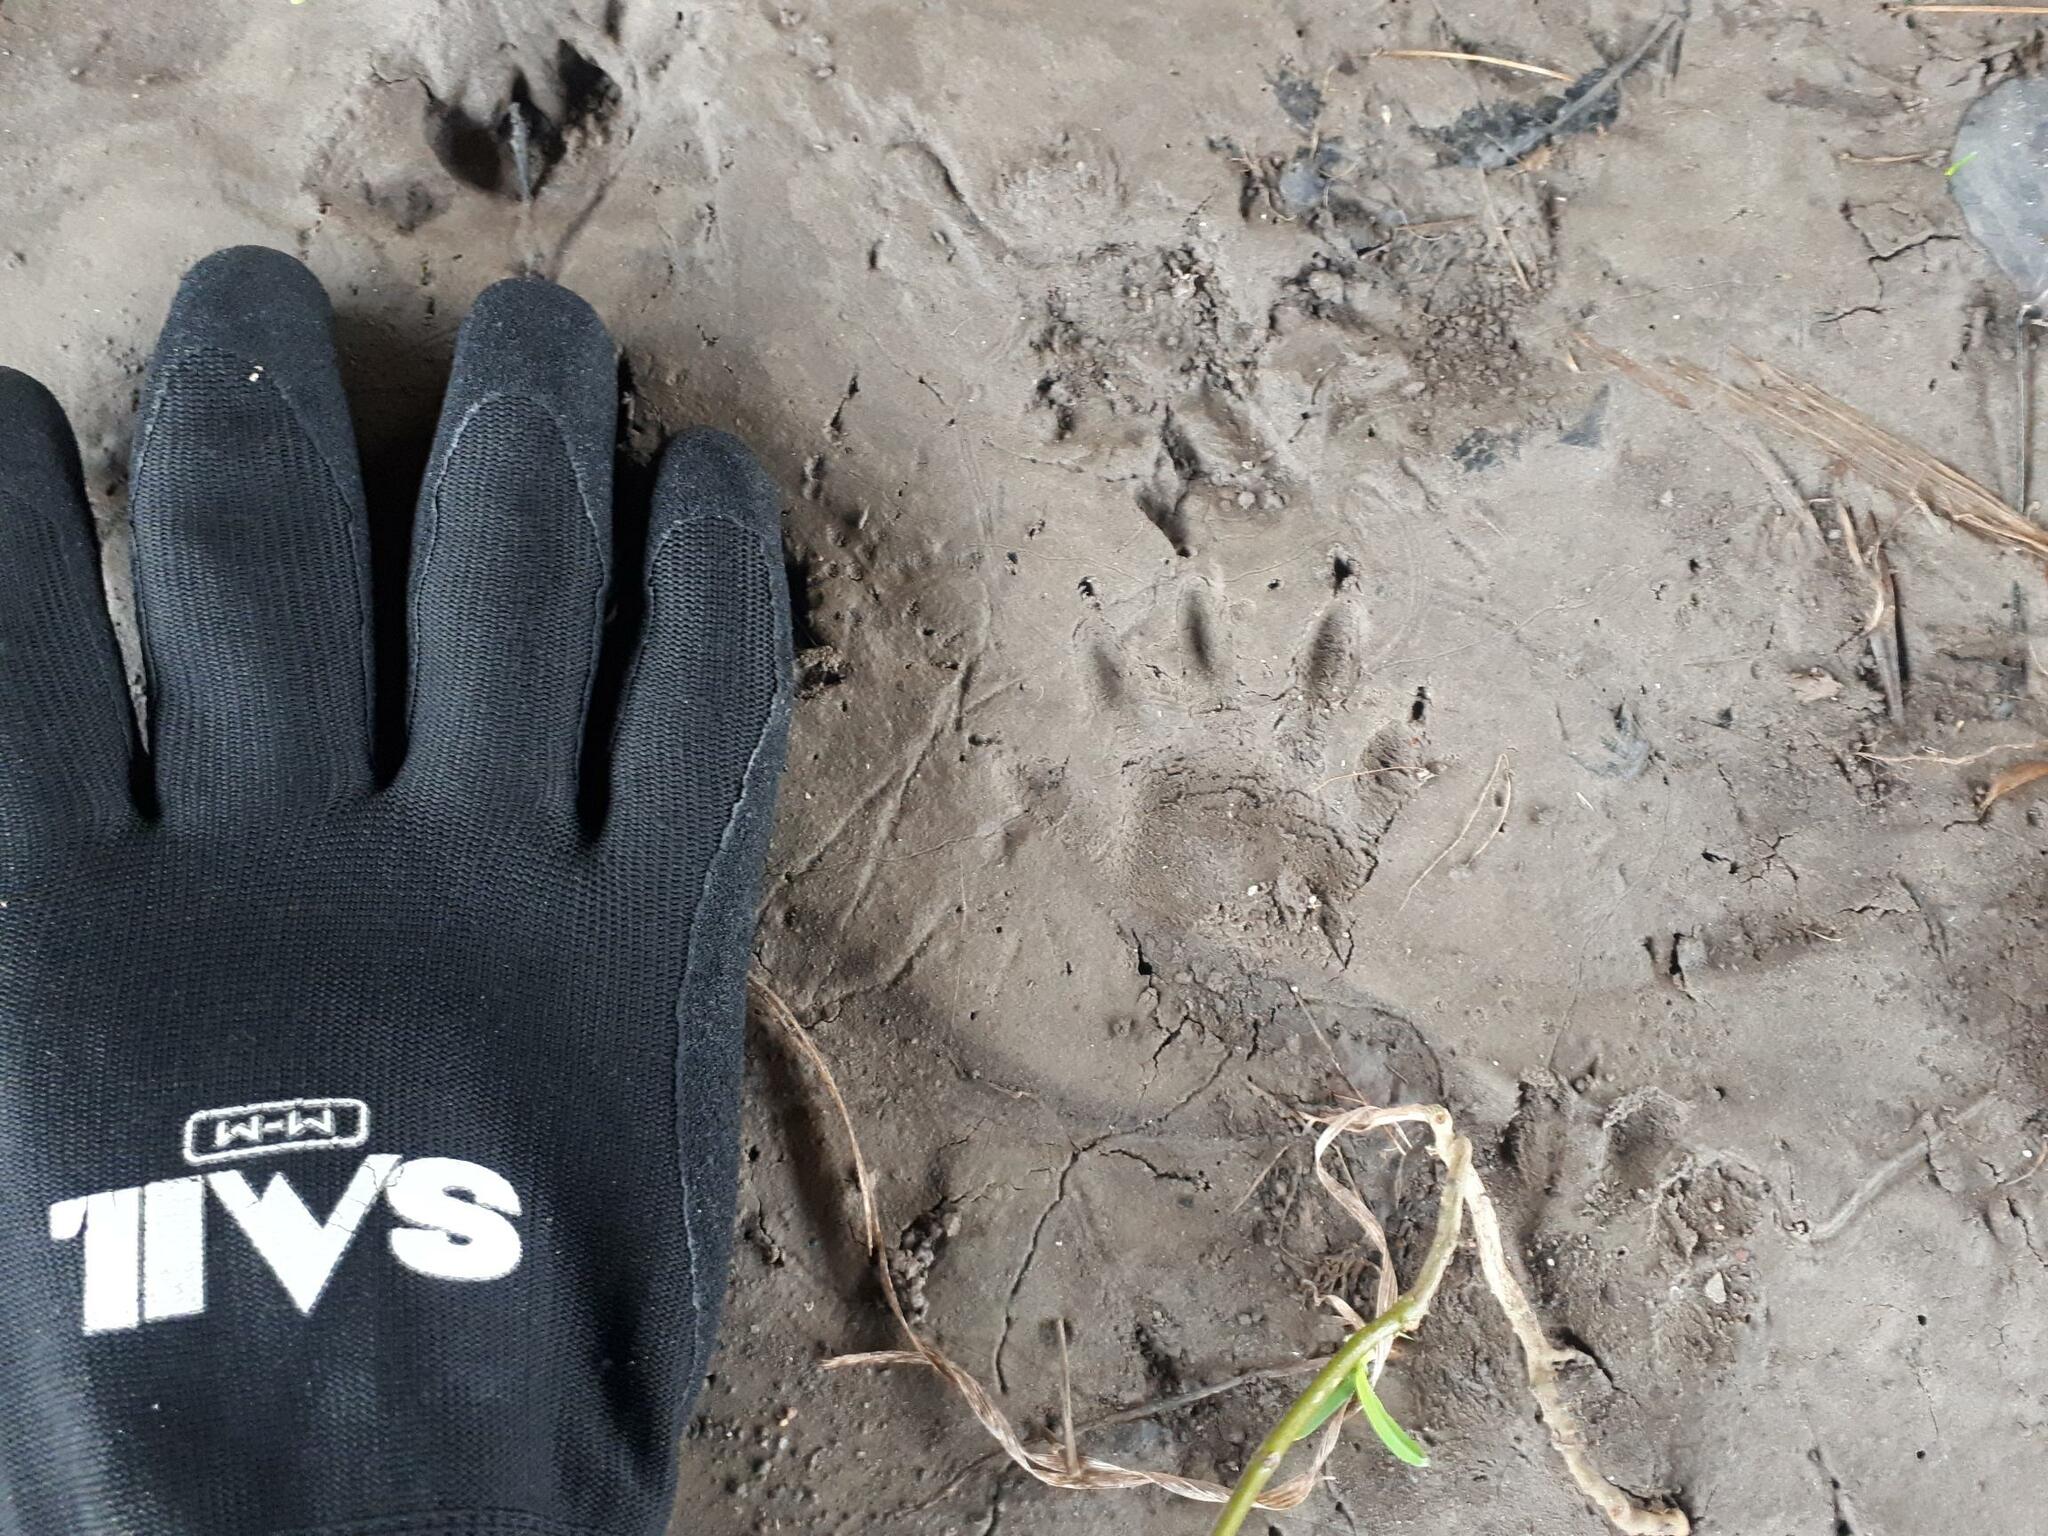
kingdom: Animalia
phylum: Chordata
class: Mammalia
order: Carnivora
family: Procyonidae
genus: Procyon
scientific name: Procyon lotor
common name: Raccoon
